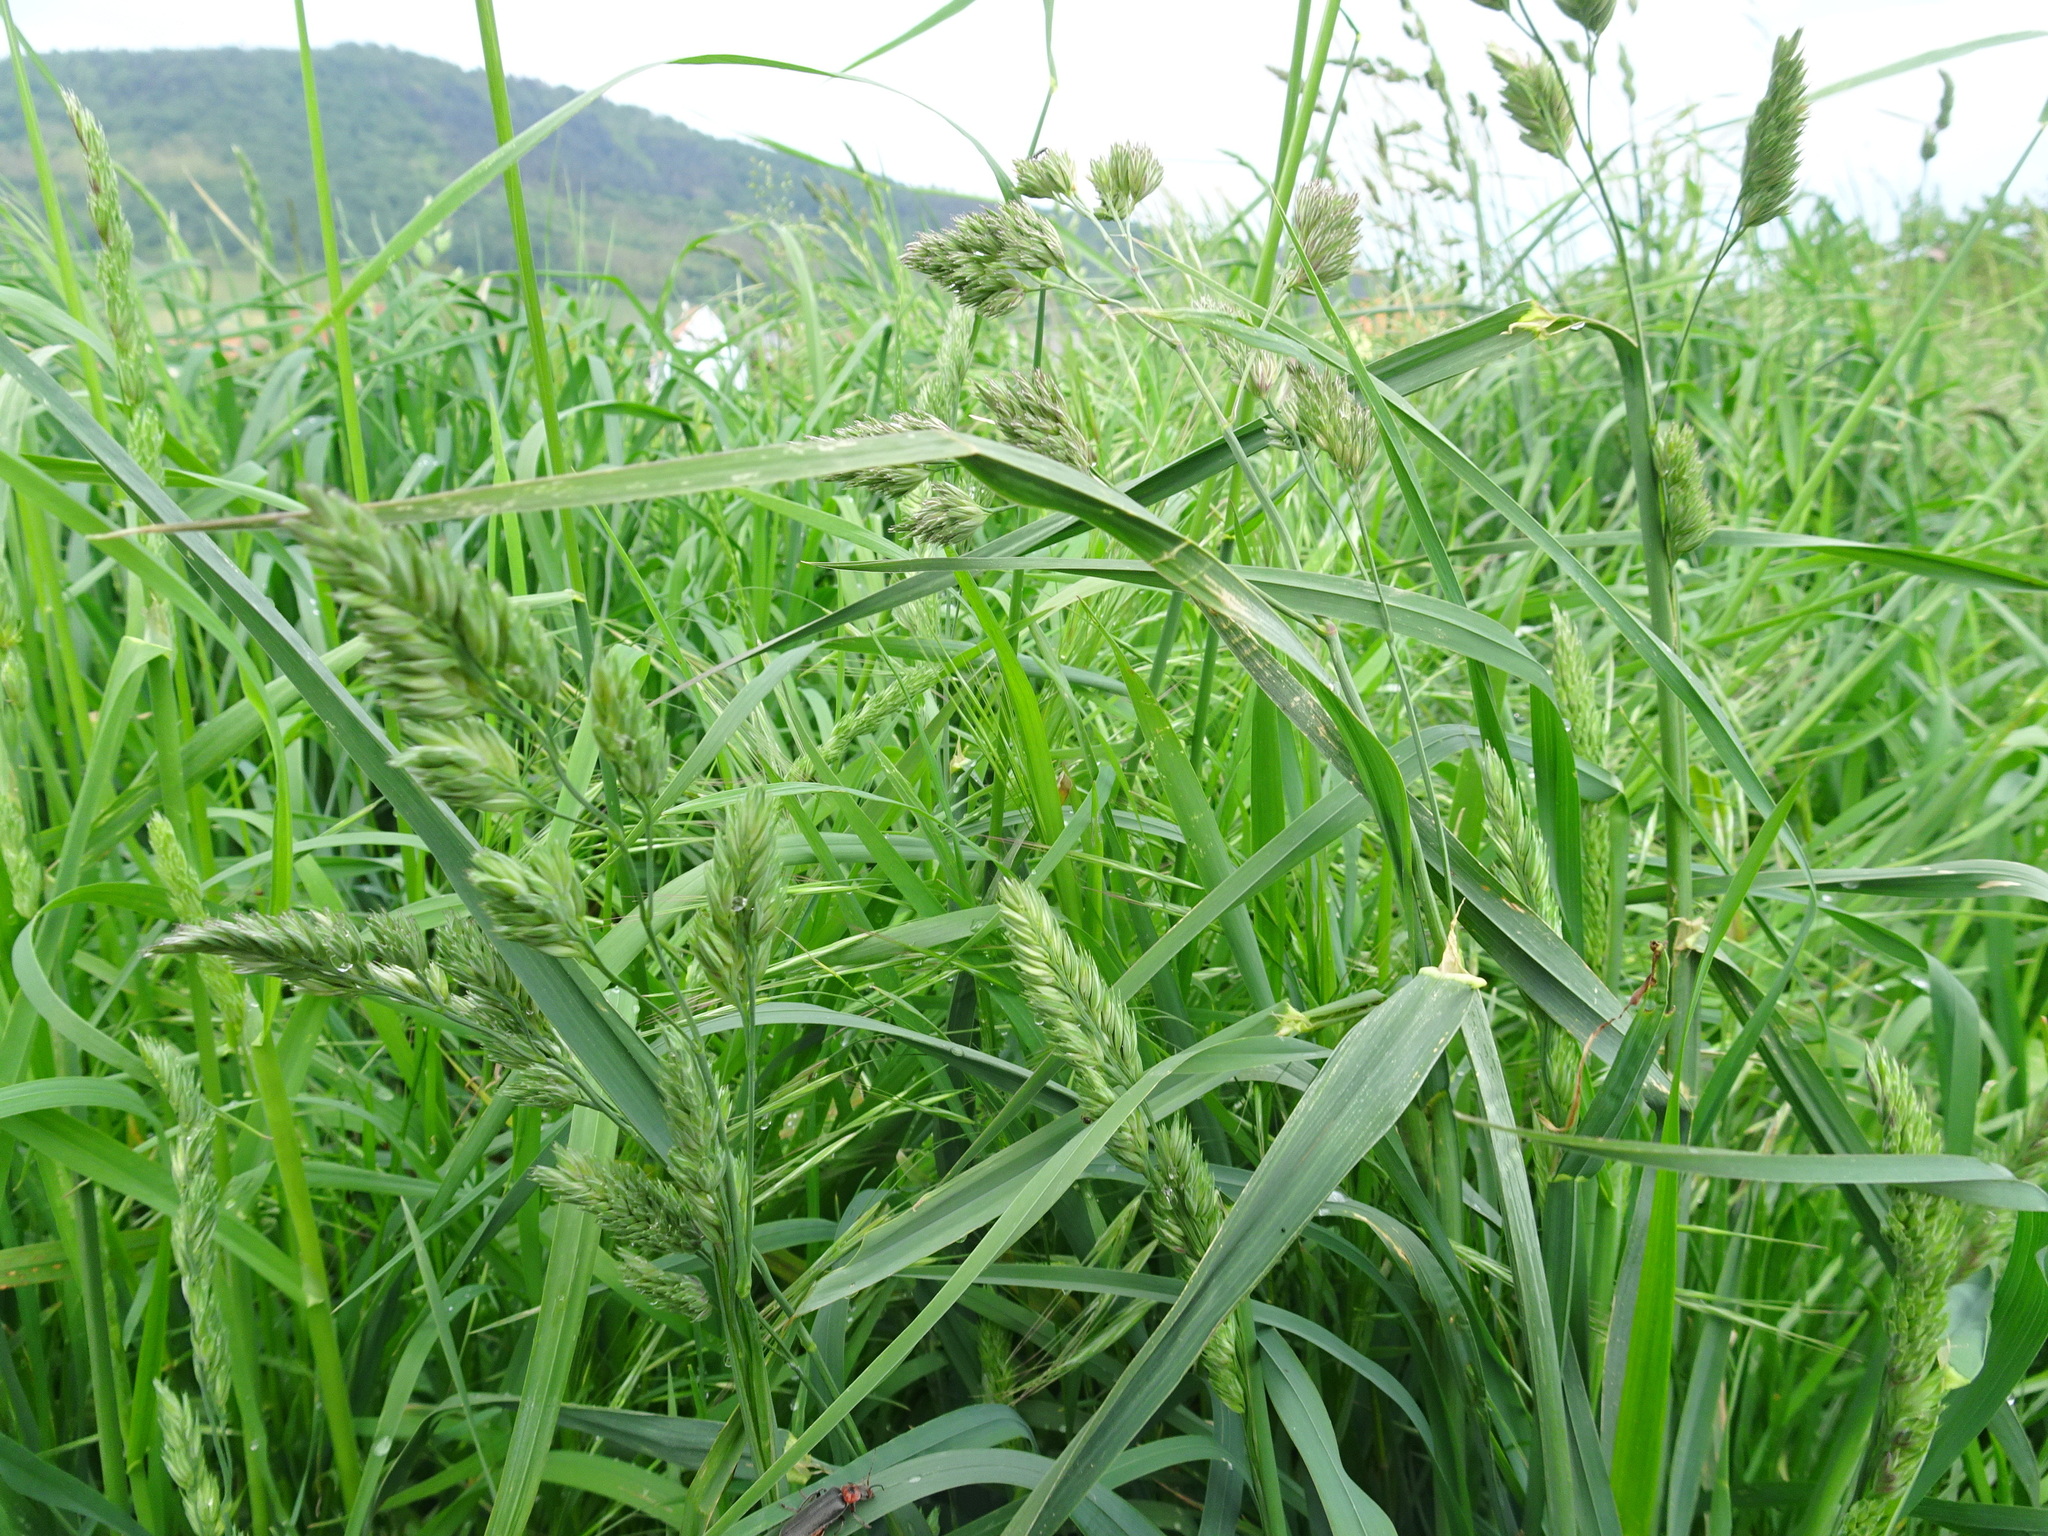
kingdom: Plantae
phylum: Tracheophyta
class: Liliopsida
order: Poales
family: Poaceae
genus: Dactylis
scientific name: Dactylis glomerata
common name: Orchardgrass
